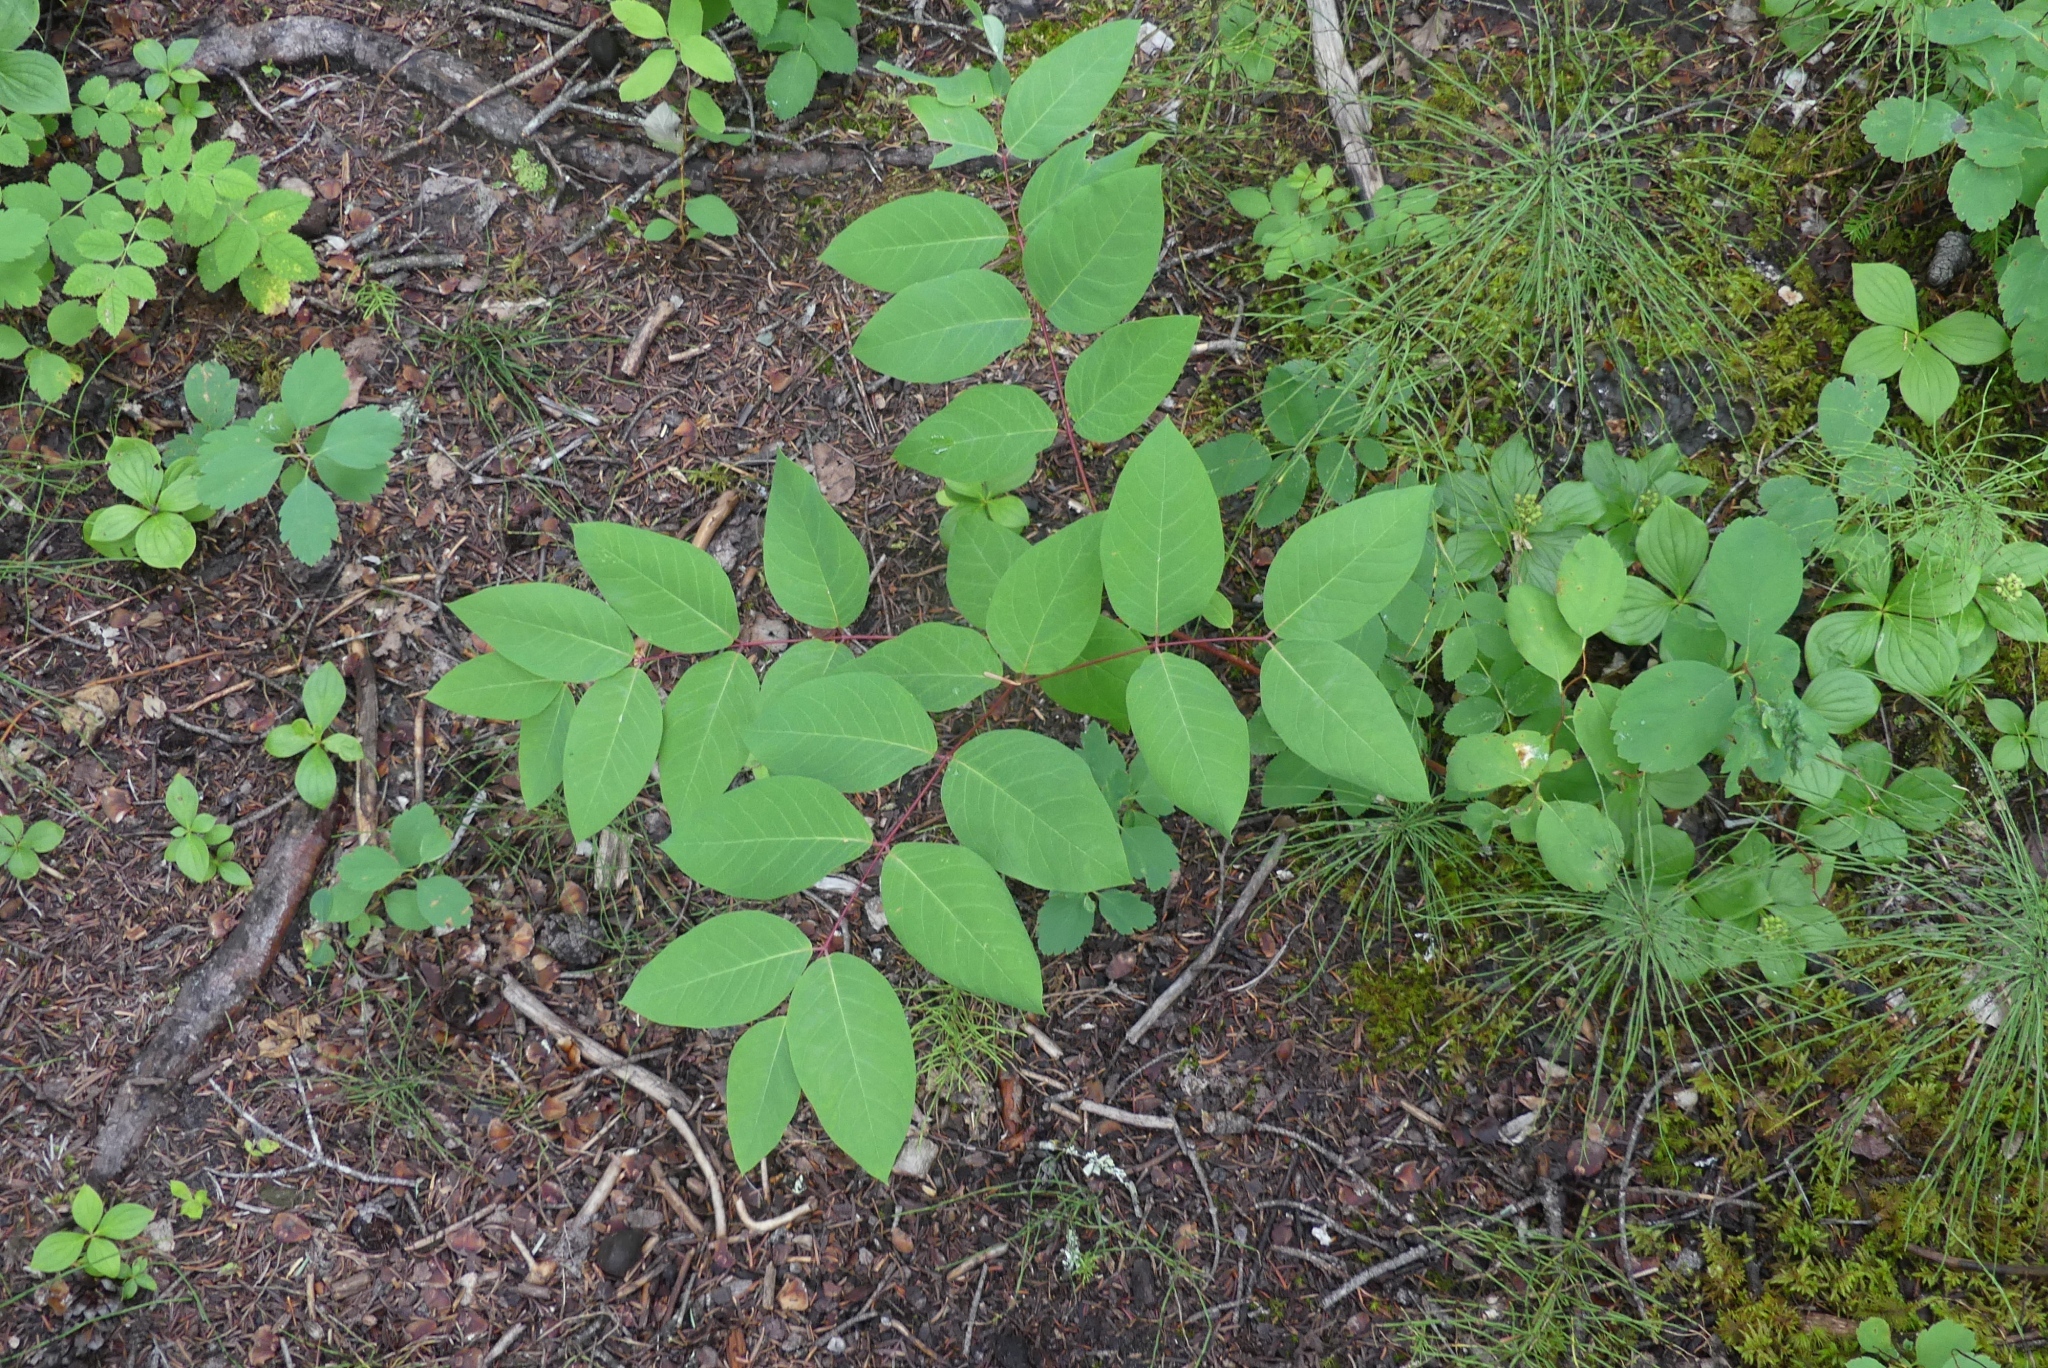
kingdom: Plantae
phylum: Tracheophyta
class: Magnoliopsida
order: Gentianales
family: Apocynaceae
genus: Apocynum
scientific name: Apocynum androsaemifolium
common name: Spreading dogbane
